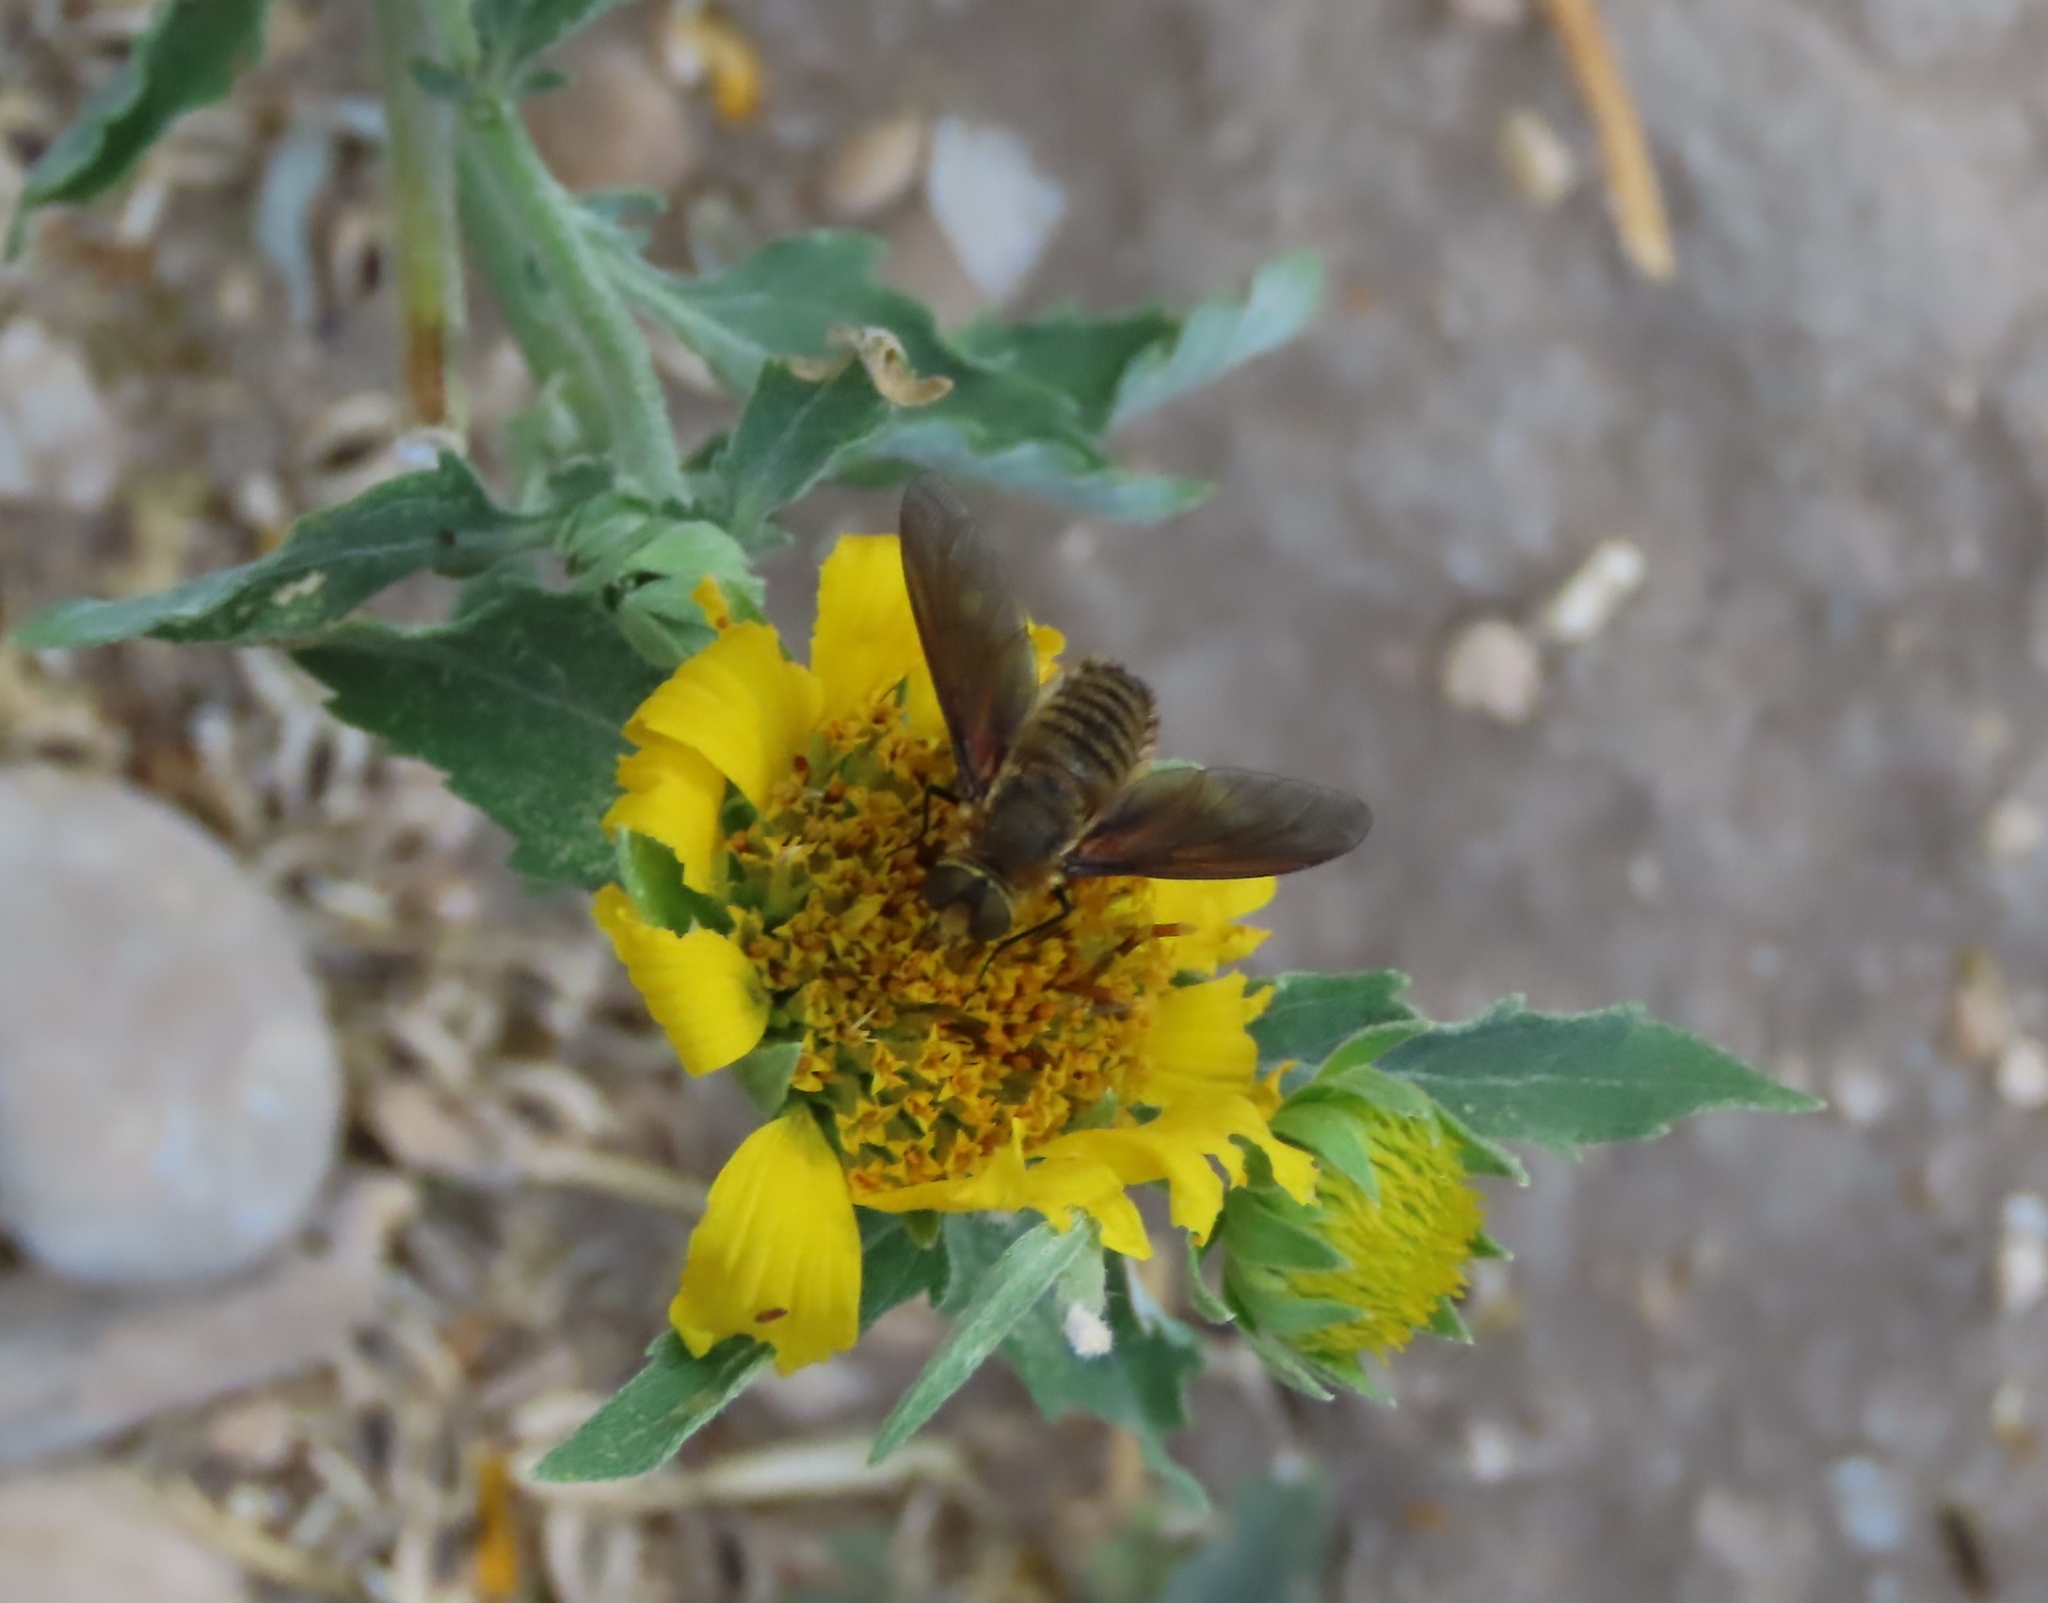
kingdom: Animalia
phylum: Arthropoda
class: Insecta
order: Diptera
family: Bombyliidae
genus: Poecilanthrax
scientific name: Poecilanthrax lucifer
